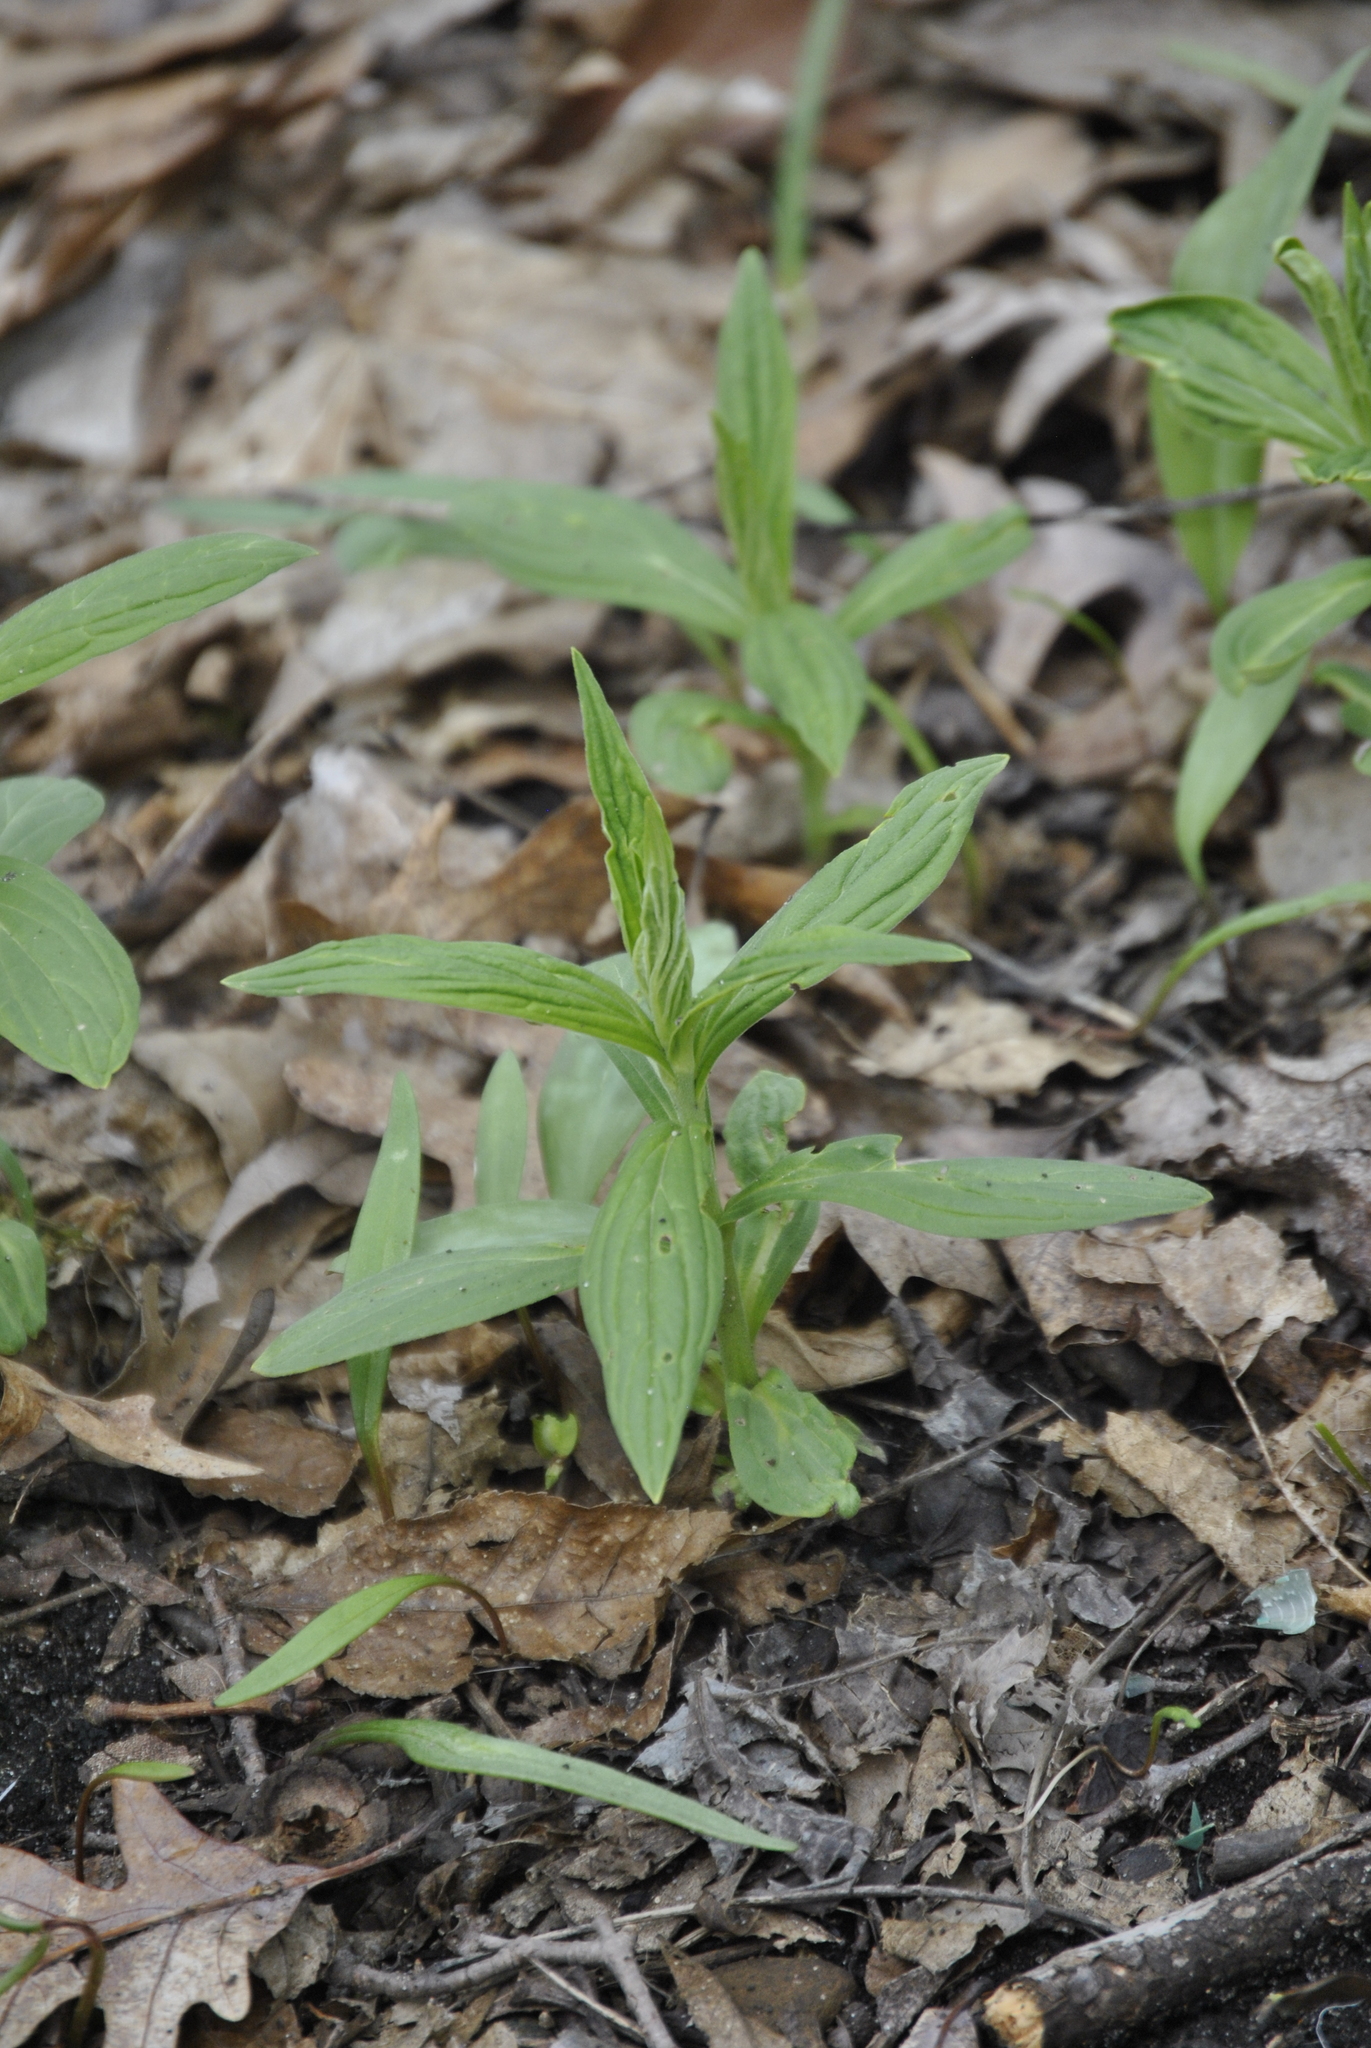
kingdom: Plantae
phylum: Tracheophyta
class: Magnoliopsida
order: Boraginales
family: Boraginaceae
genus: Lithospermum
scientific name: Lithospermum latifolium
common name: American gromwell
